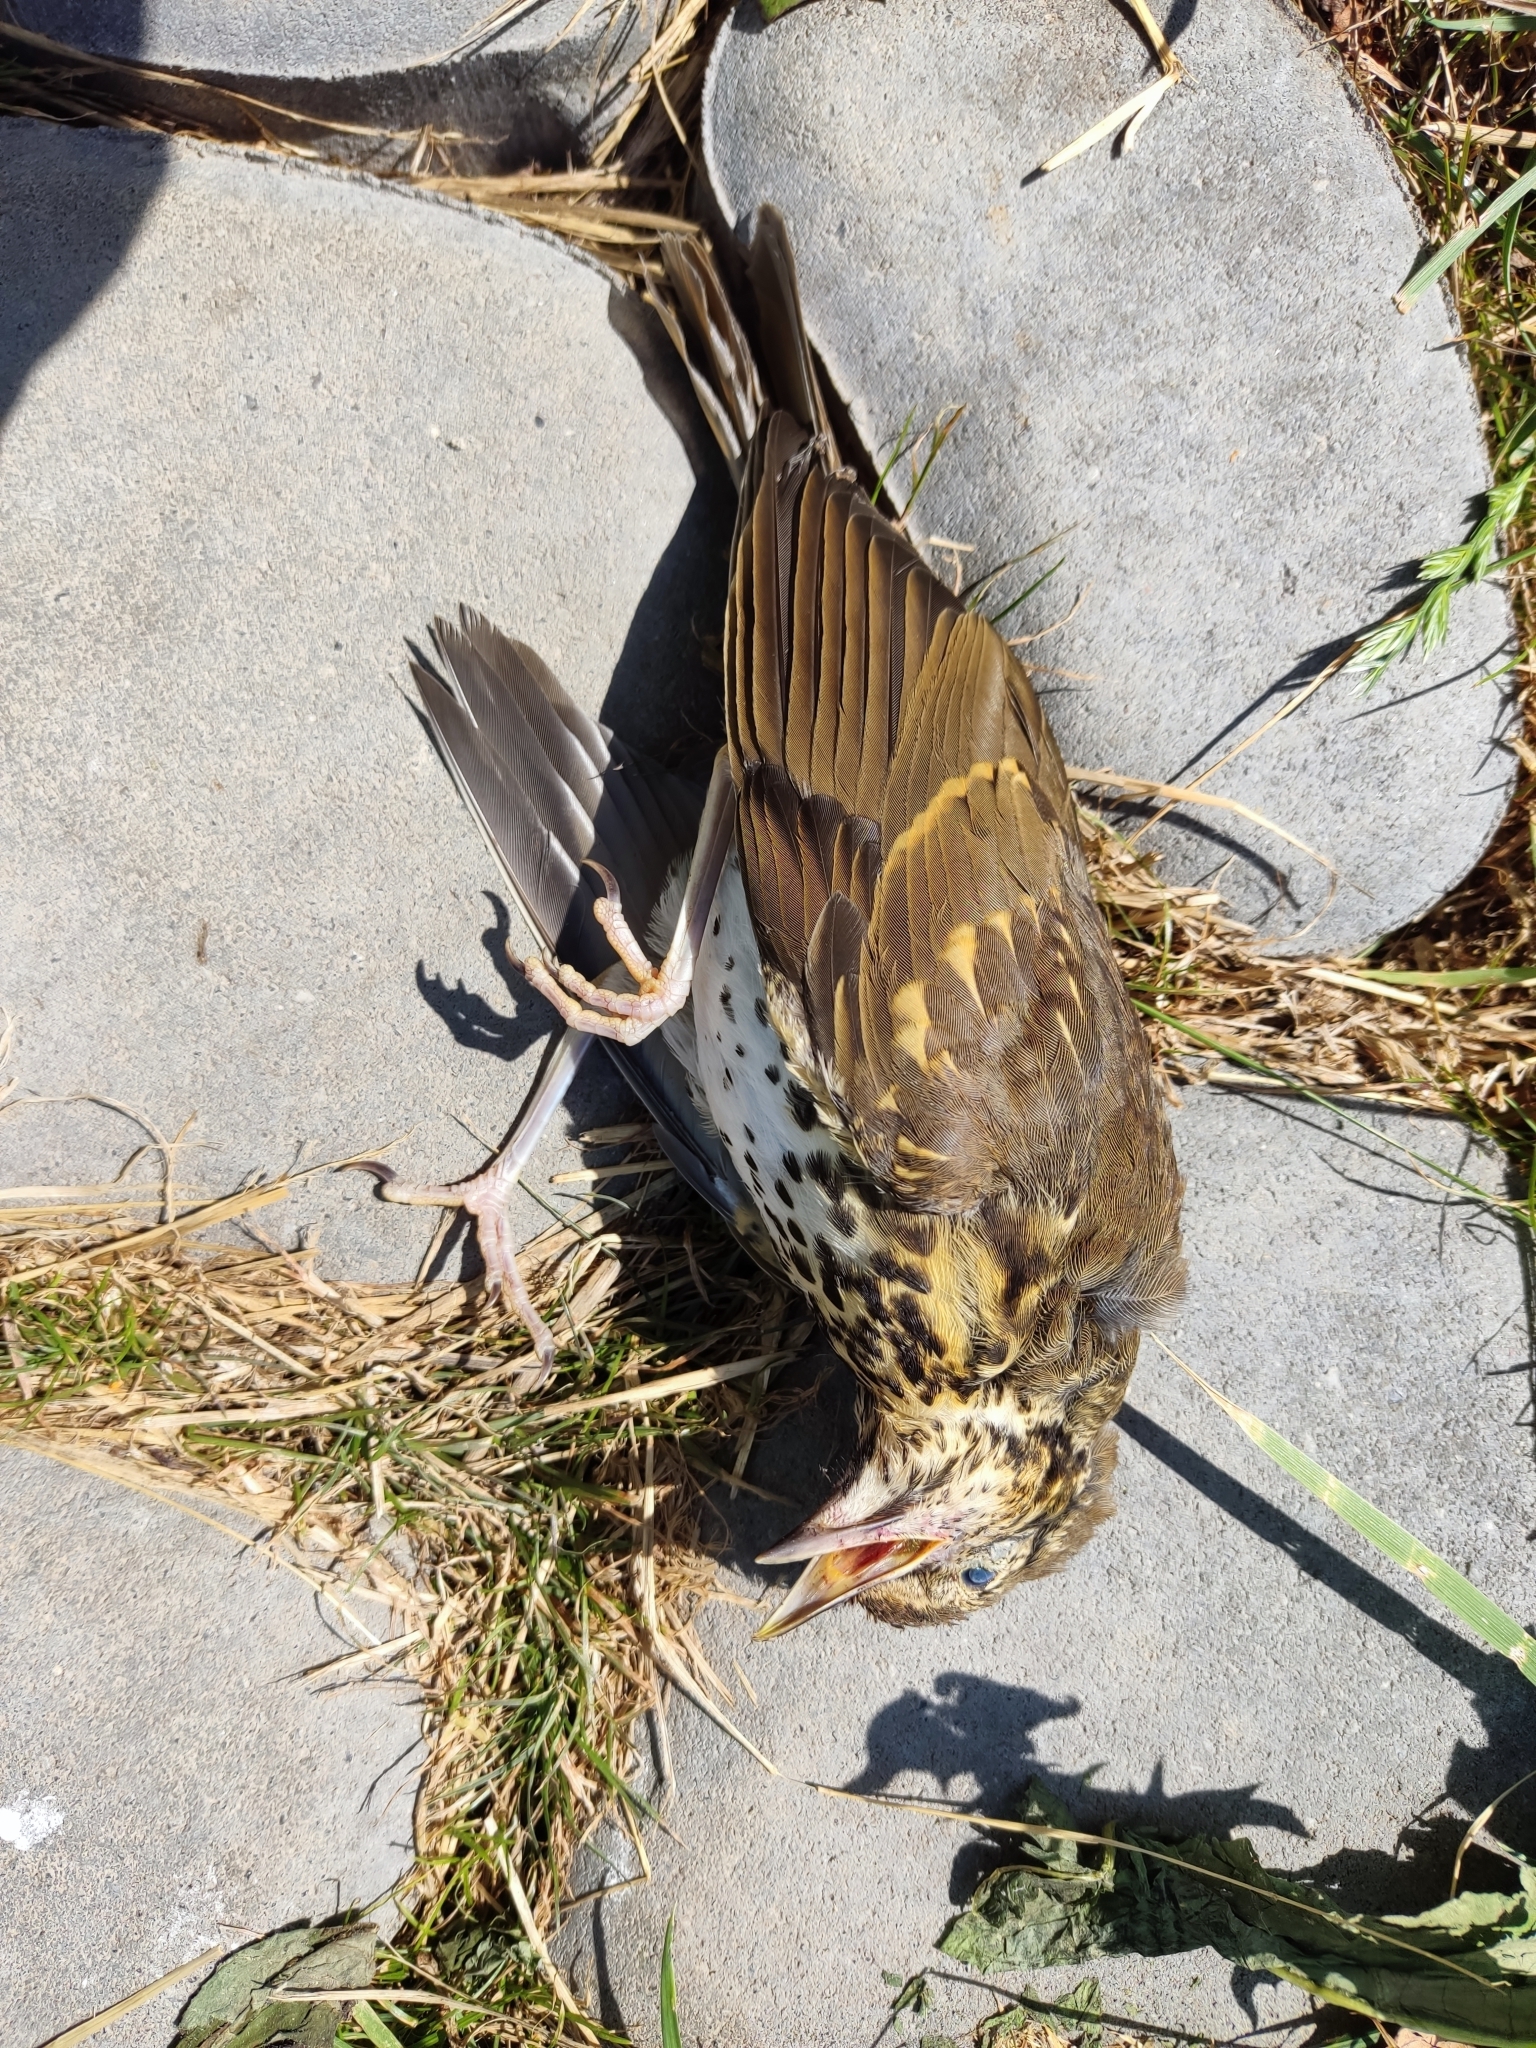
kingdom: Animalia
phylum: Chordata
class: Aves
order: Passeriformes
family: Turdidae
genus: Turdus
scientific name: Turdus philomelos
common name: Song thrush
